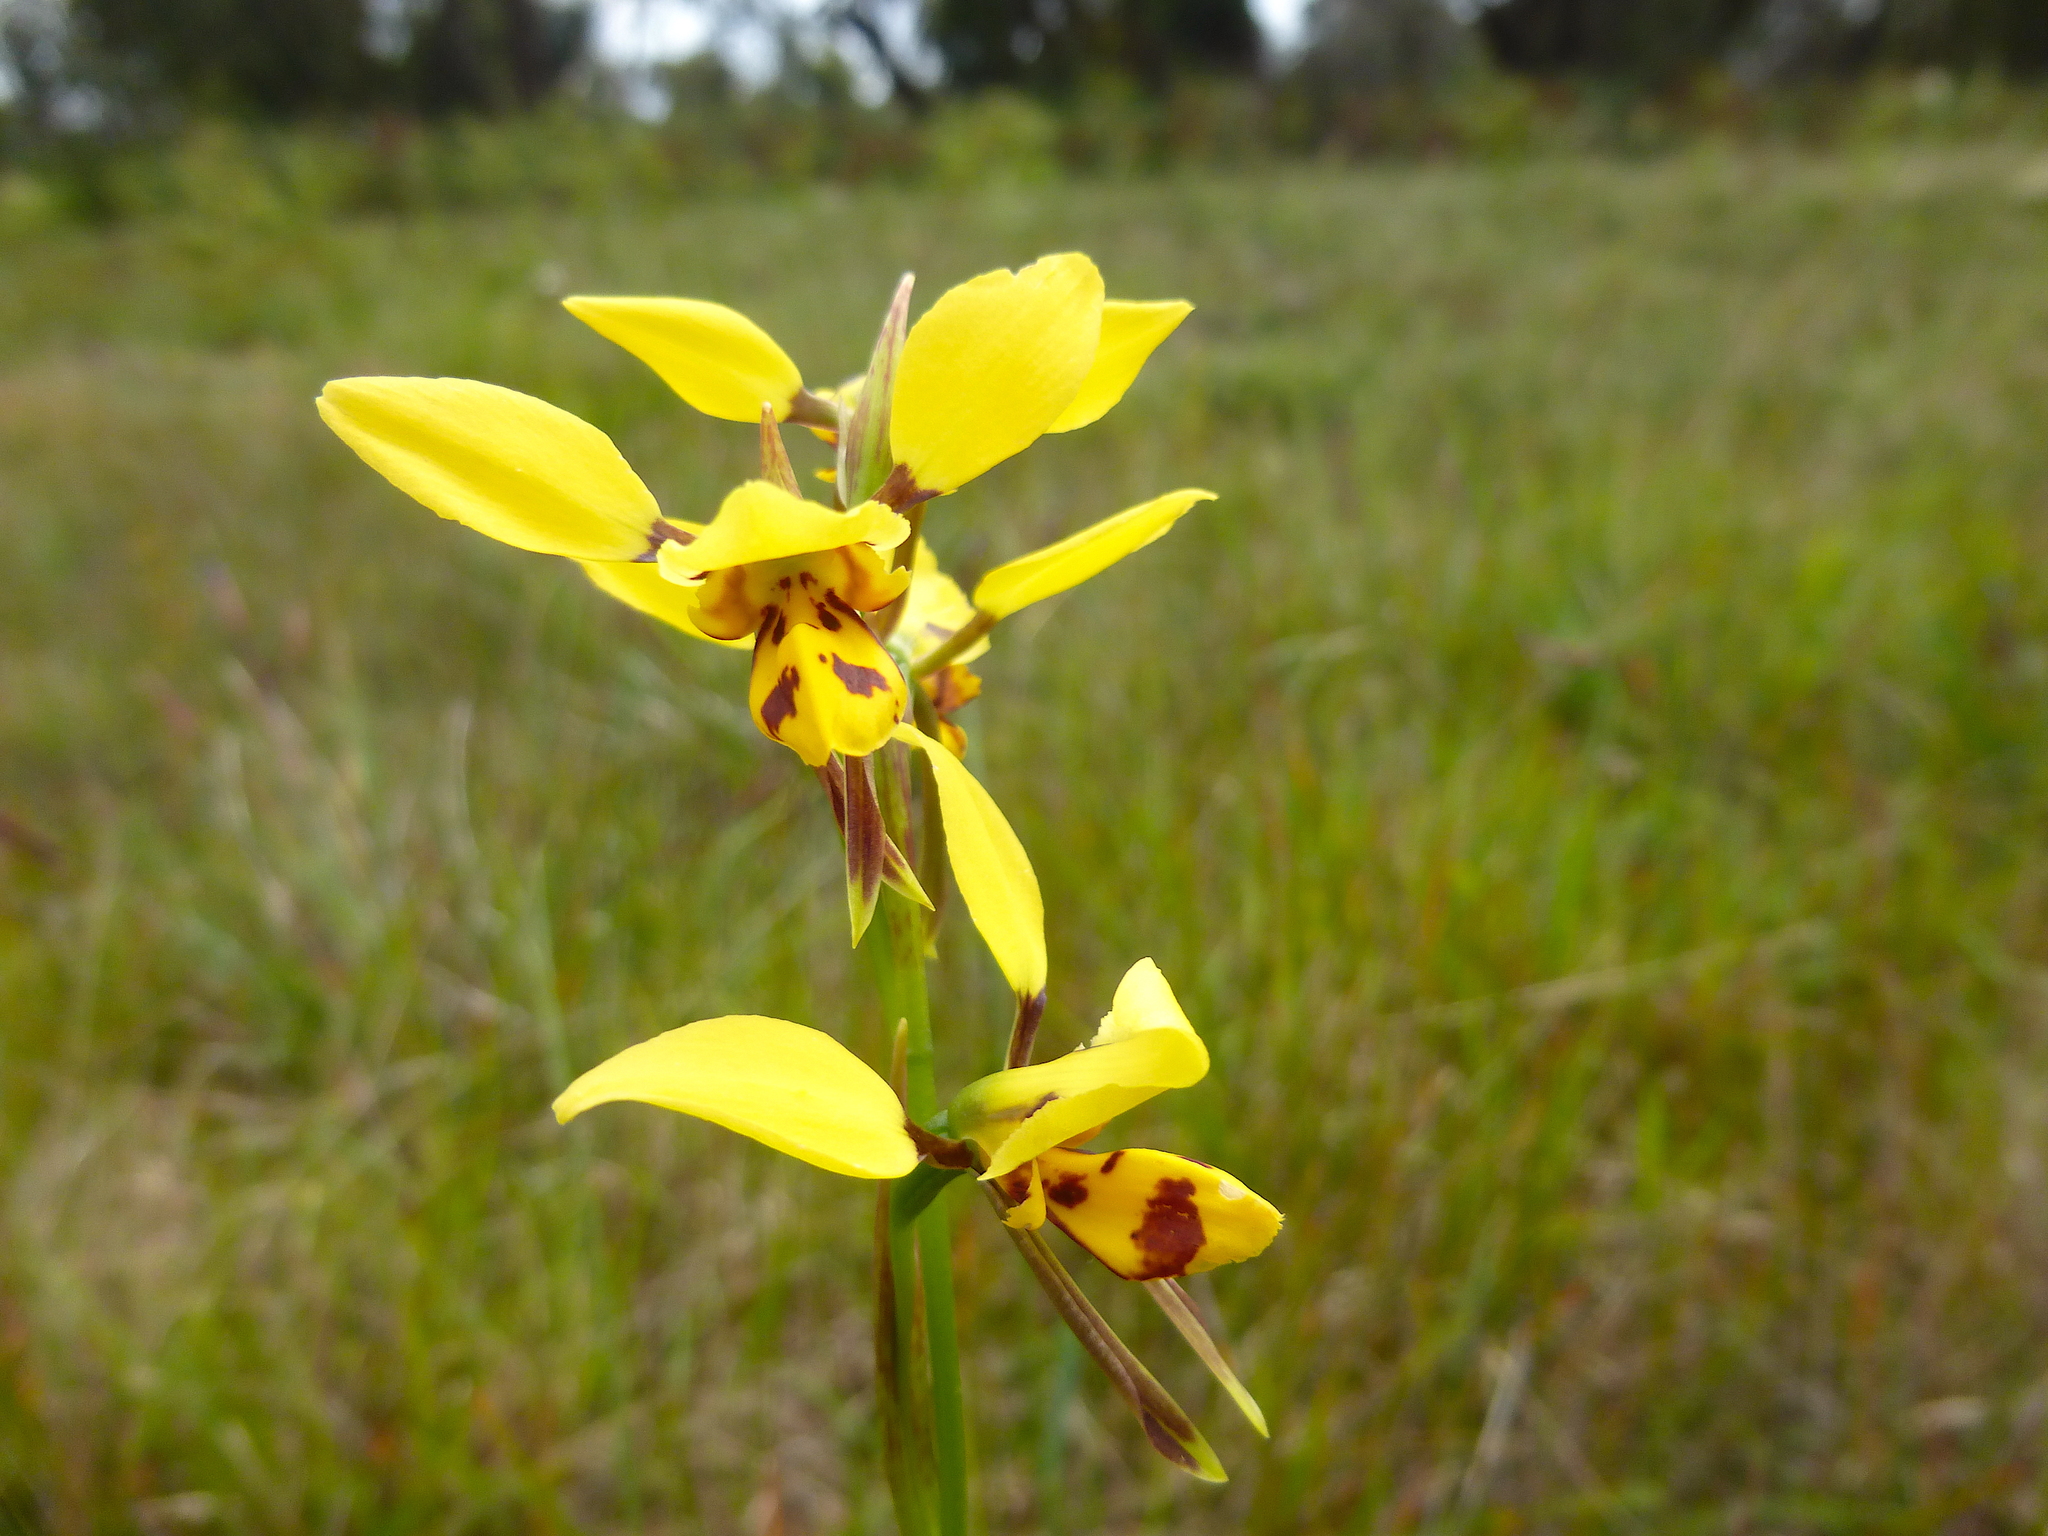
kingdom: Plantae
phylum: Tracheophyta
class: Liliopsida
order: Asparagales
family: Orchidaceae
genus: Diuris
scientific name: Diuris sulphurea
